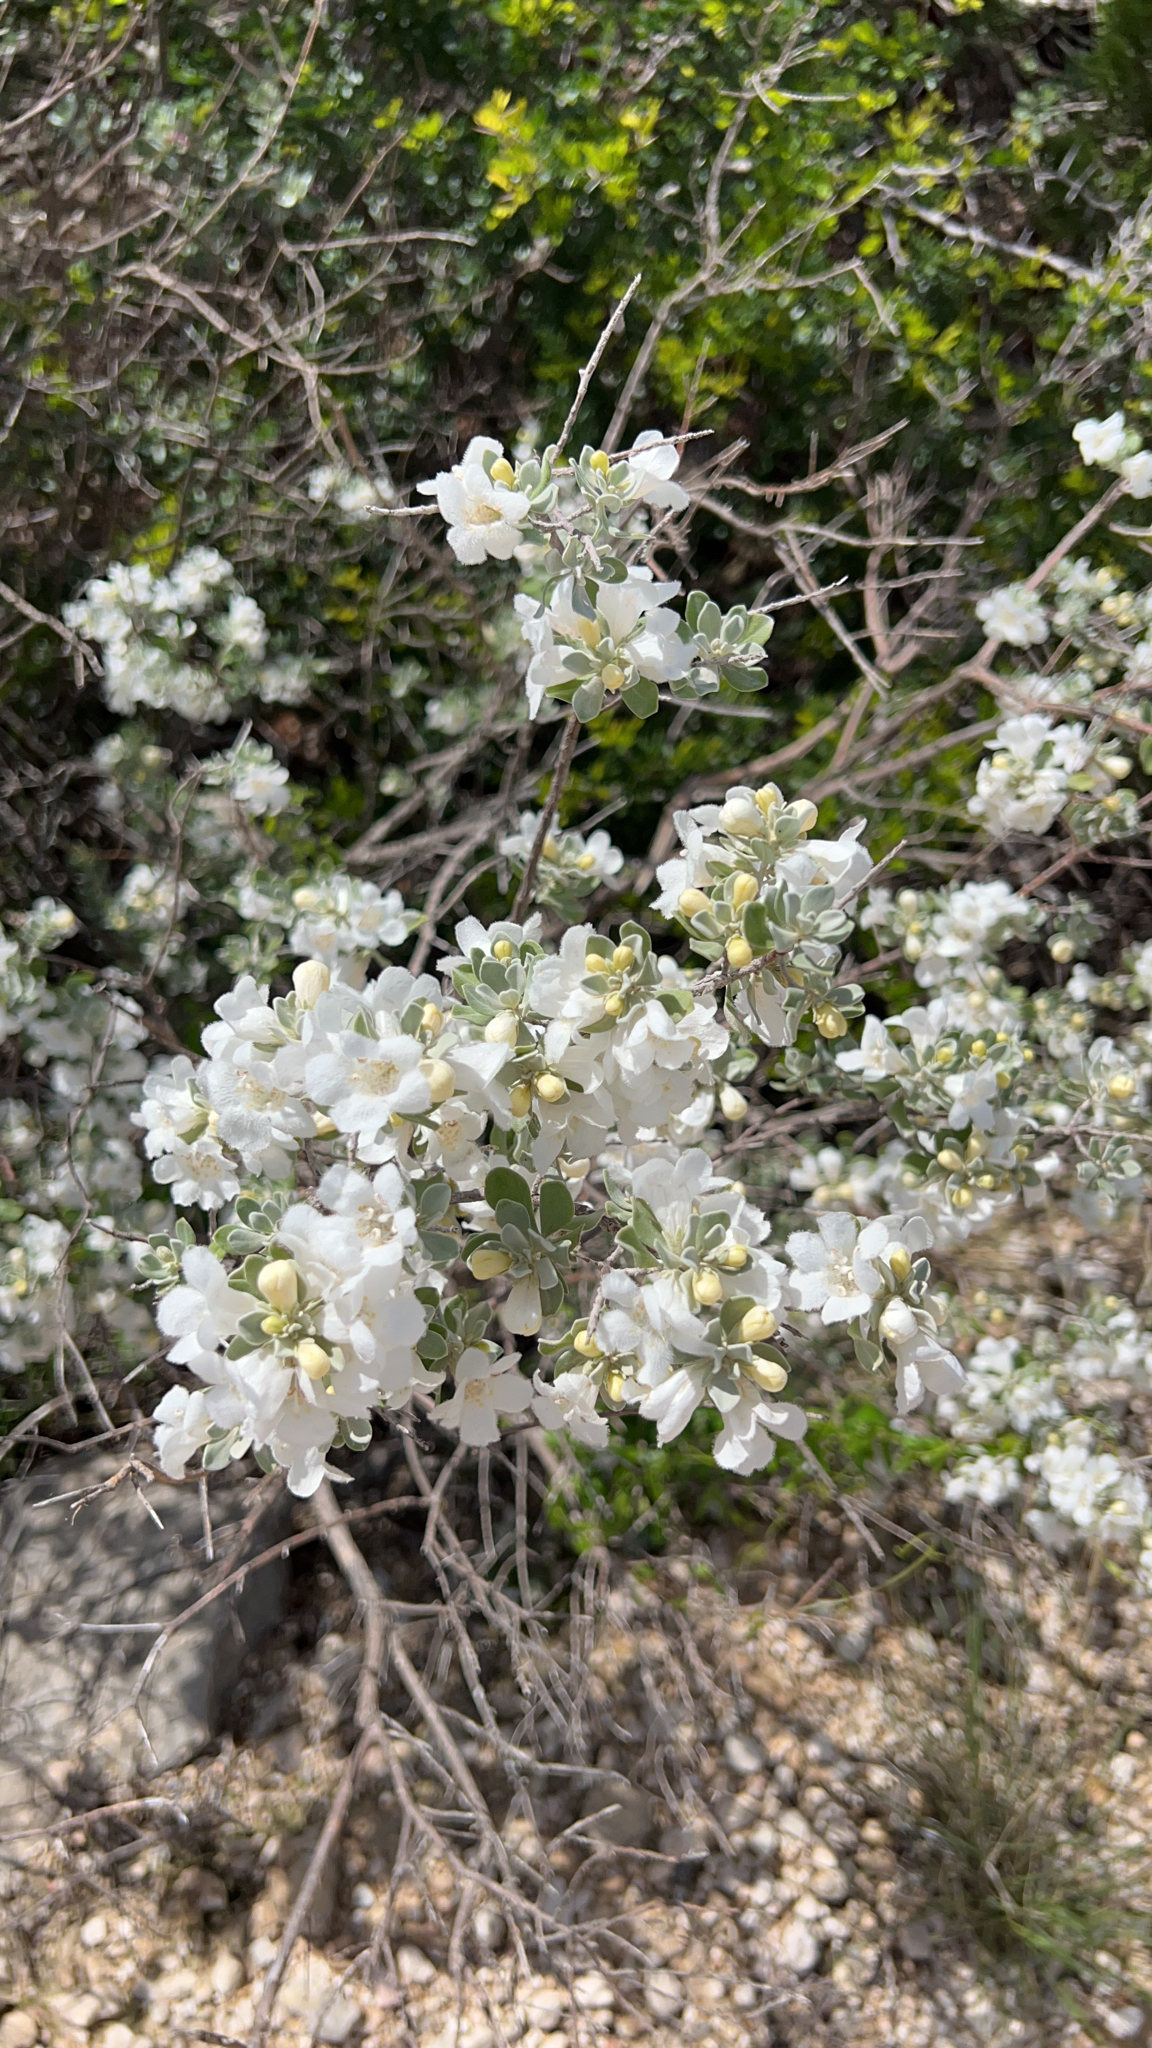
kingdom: Plantae
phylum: Tracheophyta
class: Magnoliopsida
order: Lamiales
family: Scrophulariaceae
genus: Leucophyllum
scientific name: Leucophyllum frutescens
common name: Texas silverleaf
